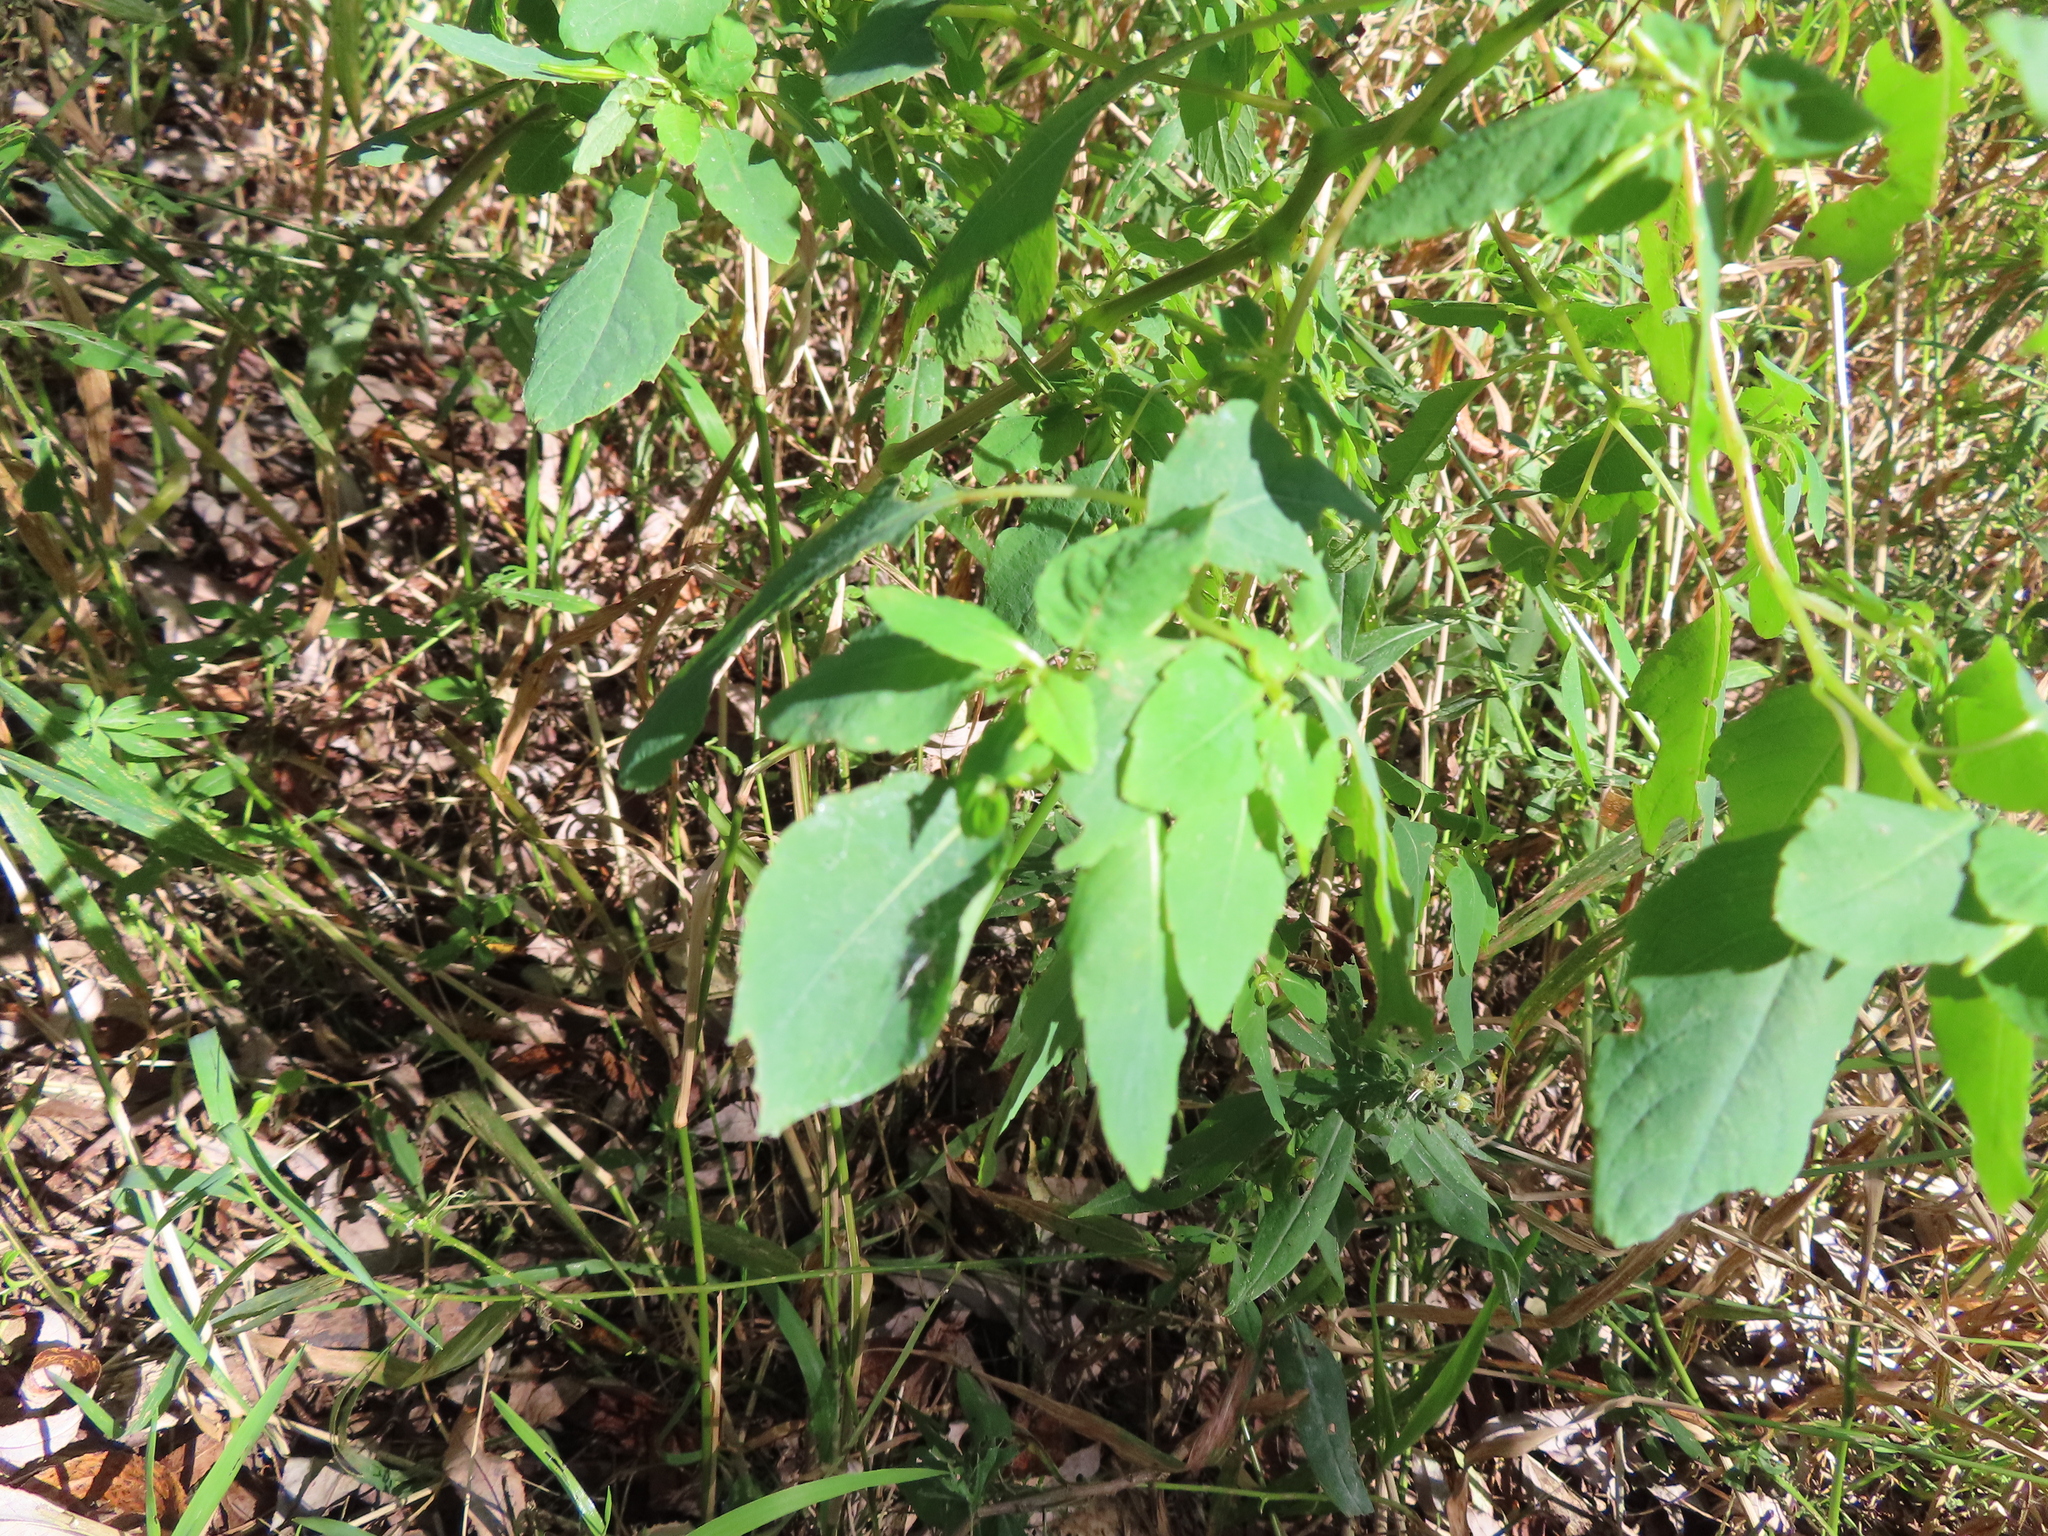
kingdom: Plantae
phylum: Tracheophyta
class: Magnoliopsida
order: Ericales
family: Balsaminaceae
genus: Impatiens
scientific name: Impatiens capensis
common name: Orange balsam
